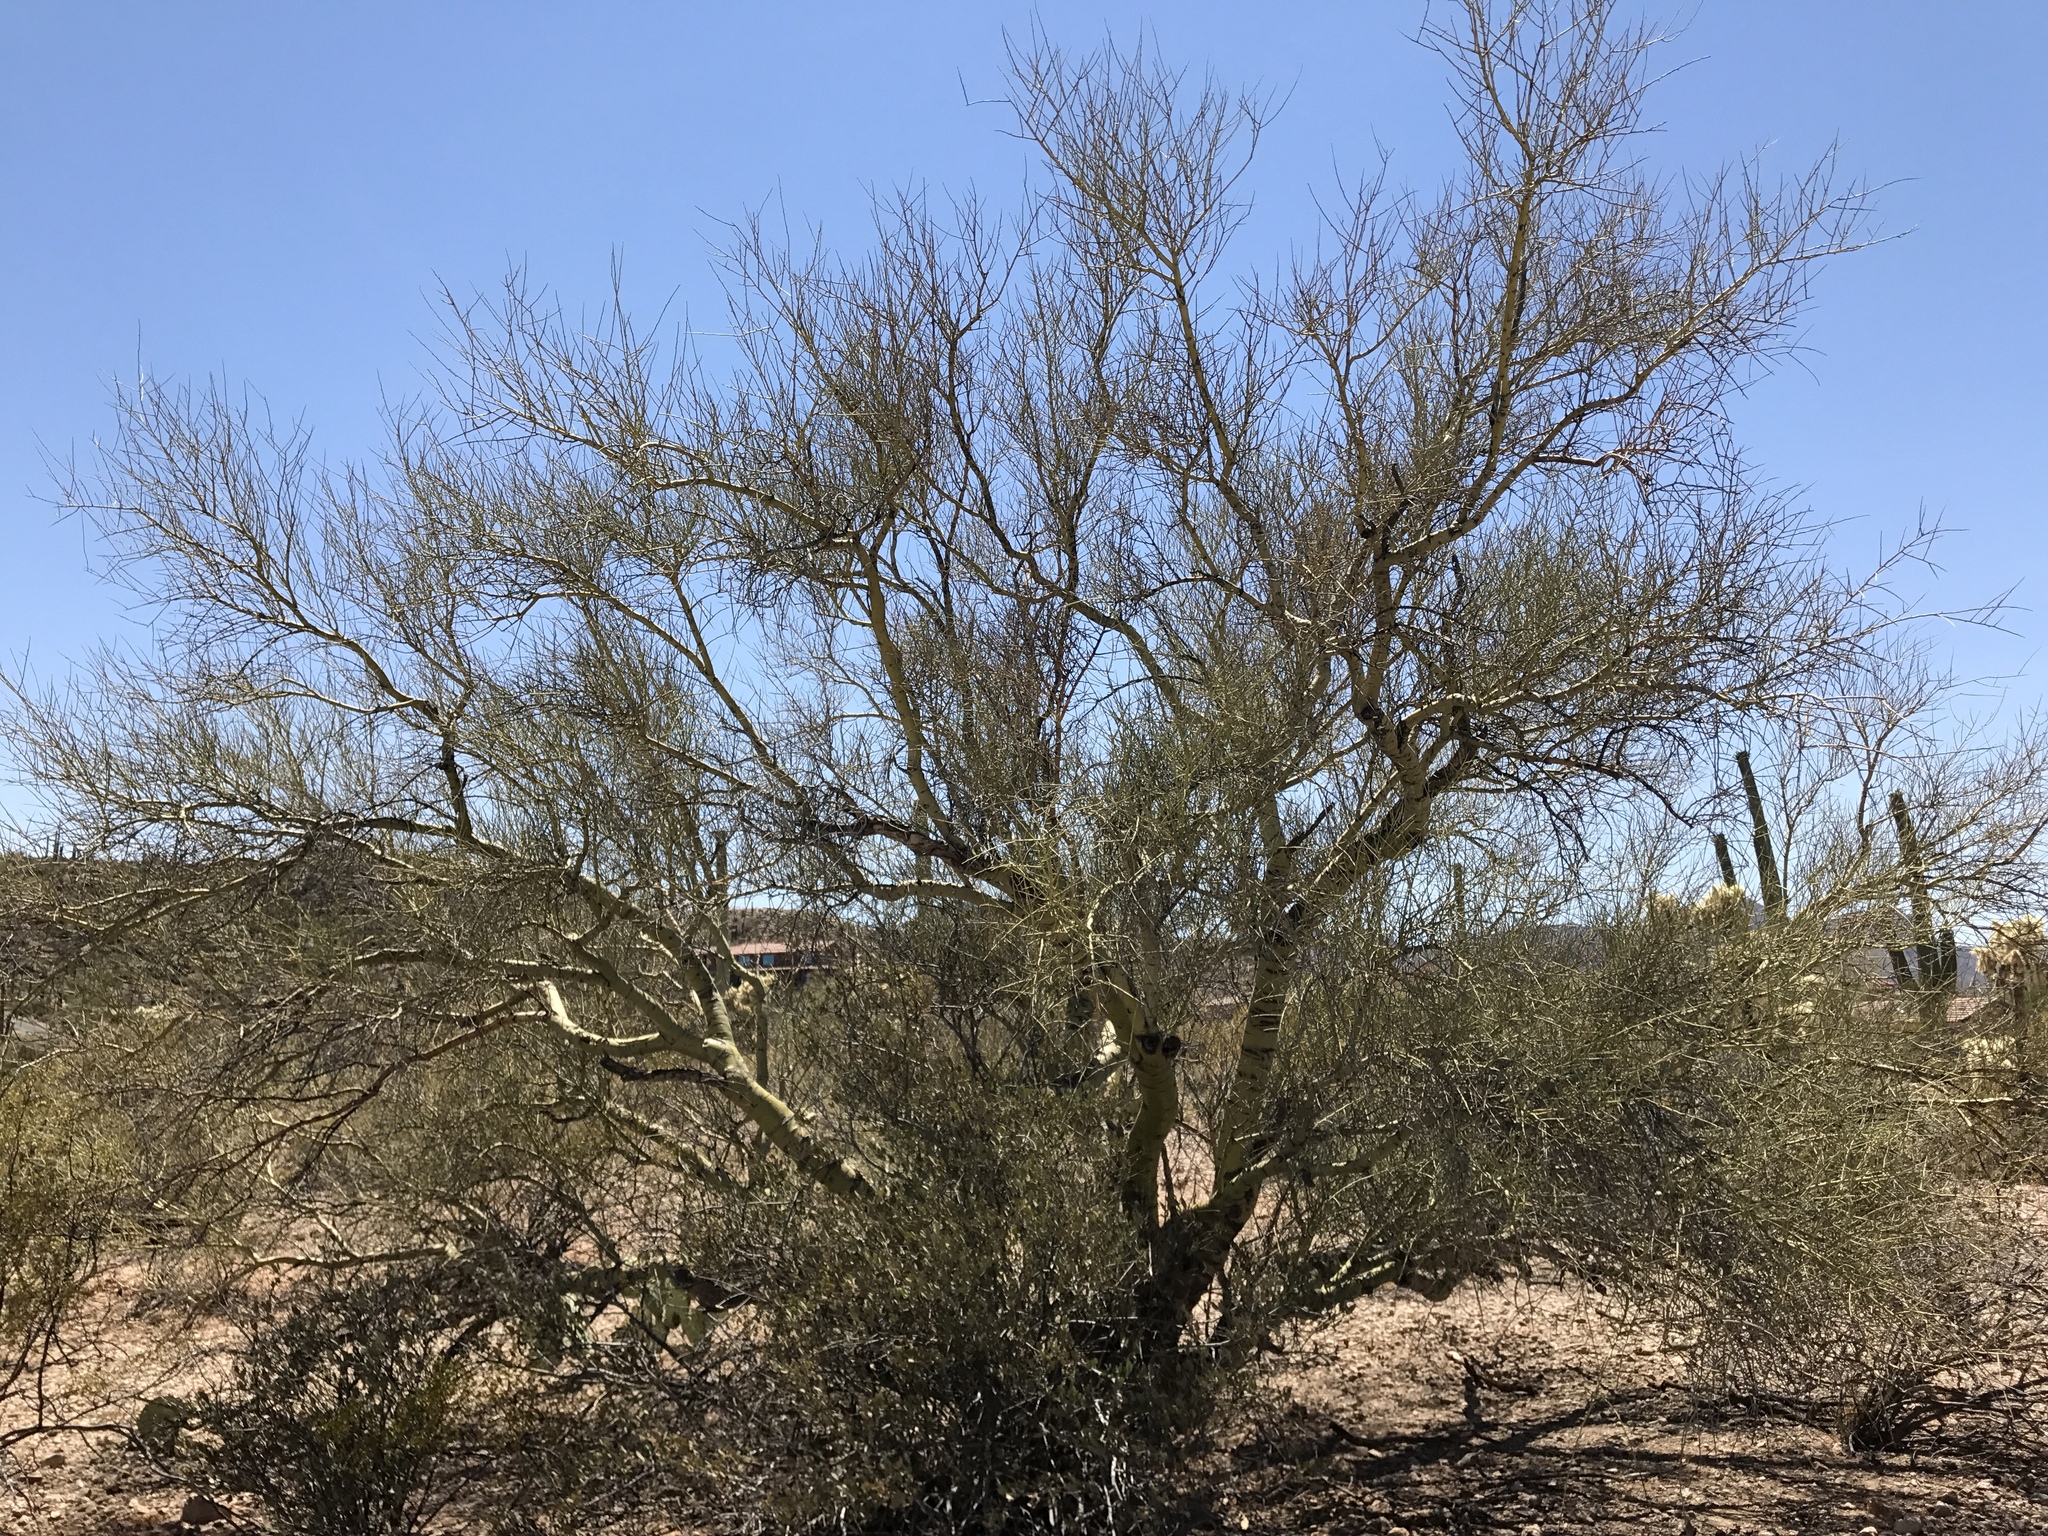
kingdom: Plantae
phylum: Tracheophyta
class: Magnoliopsida
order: Fabales
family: Fabaceae
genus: Parkinsonia
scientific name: Parkinsonia microphylla
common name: Yellow paloverde
